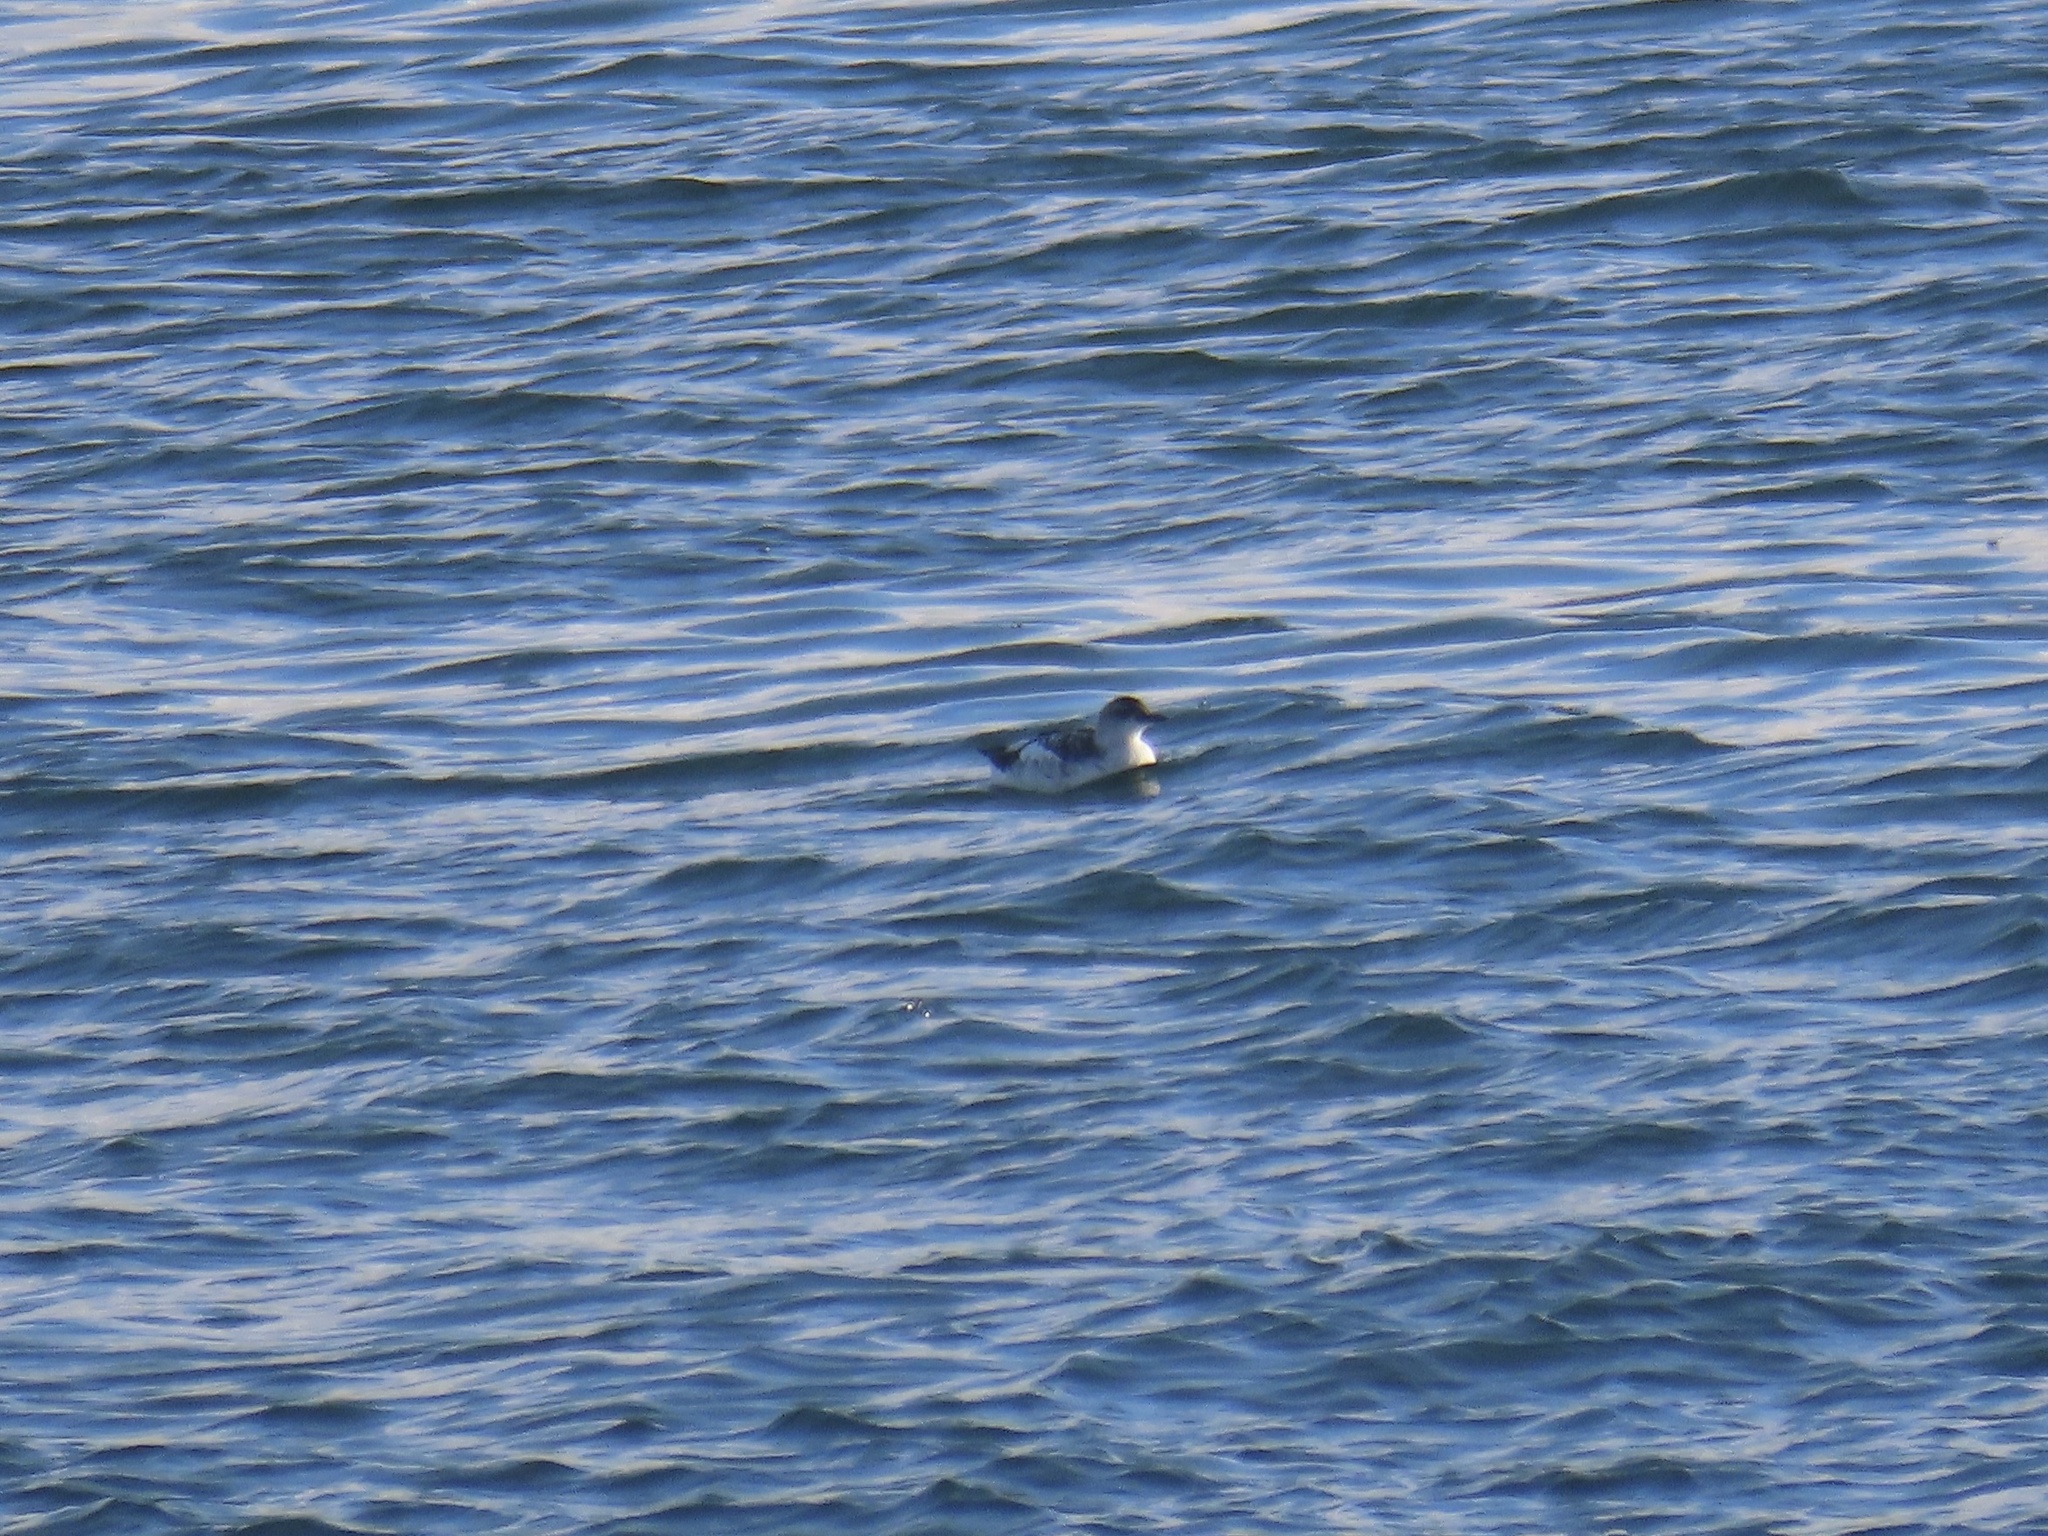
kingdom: Animalia
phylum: Chordata
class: Aves
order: Charadriiformes
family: Alcidae
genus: Cepphus
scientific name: Cepphus columba
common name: Pigeon guillemot
